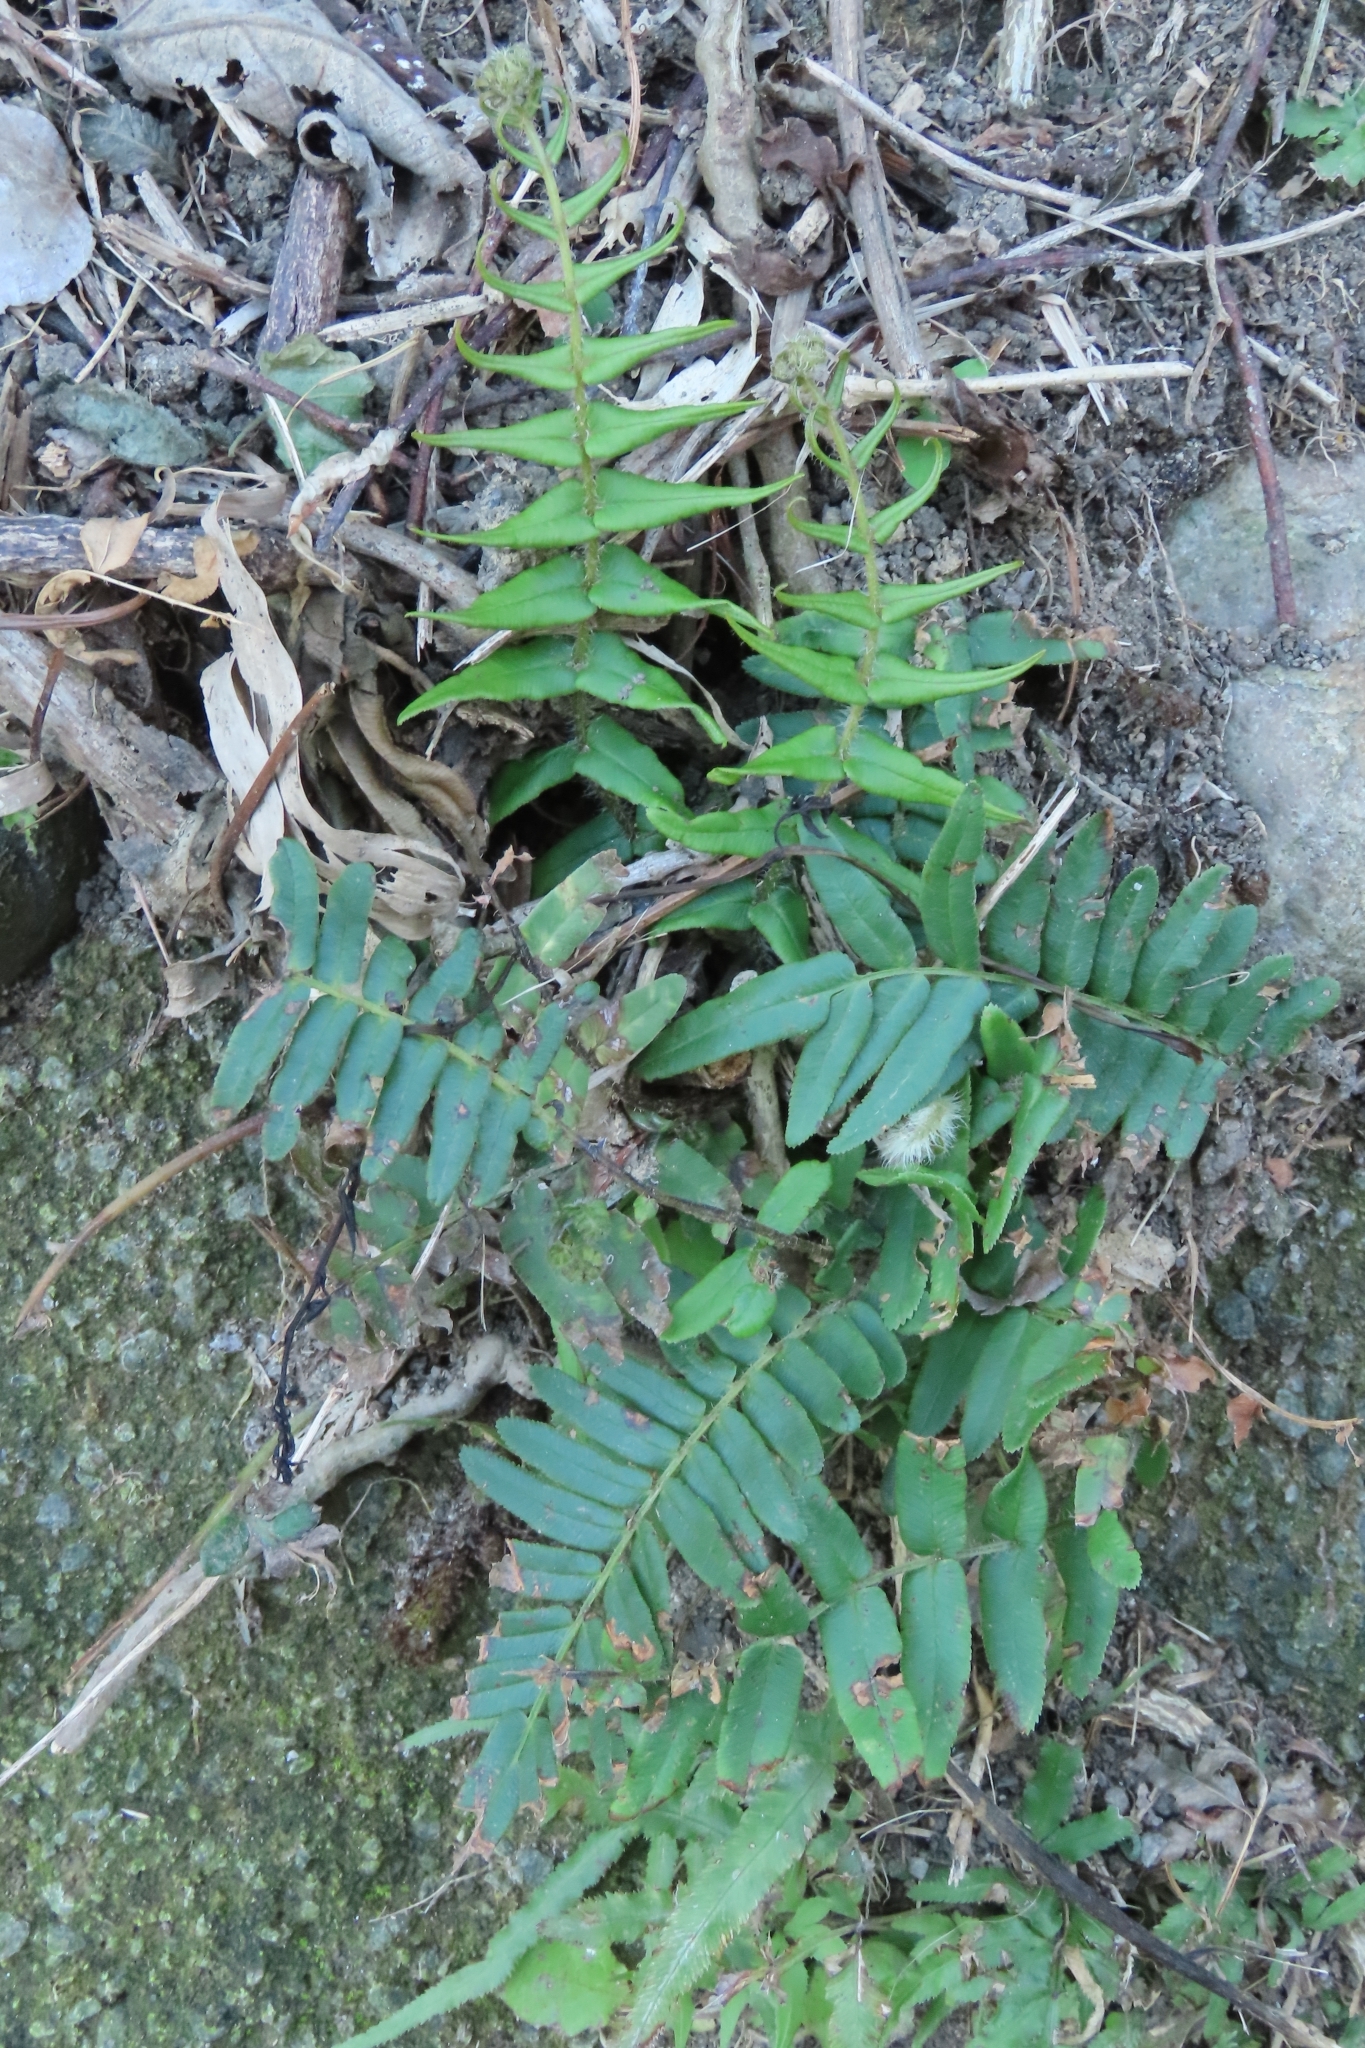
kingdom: Plantae
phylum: Tracheophyta
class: Polypodiopsida
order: Polypodiales
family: Pteridaceae
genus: Pteris
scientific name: Pteris vittata
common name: Ladder brake
